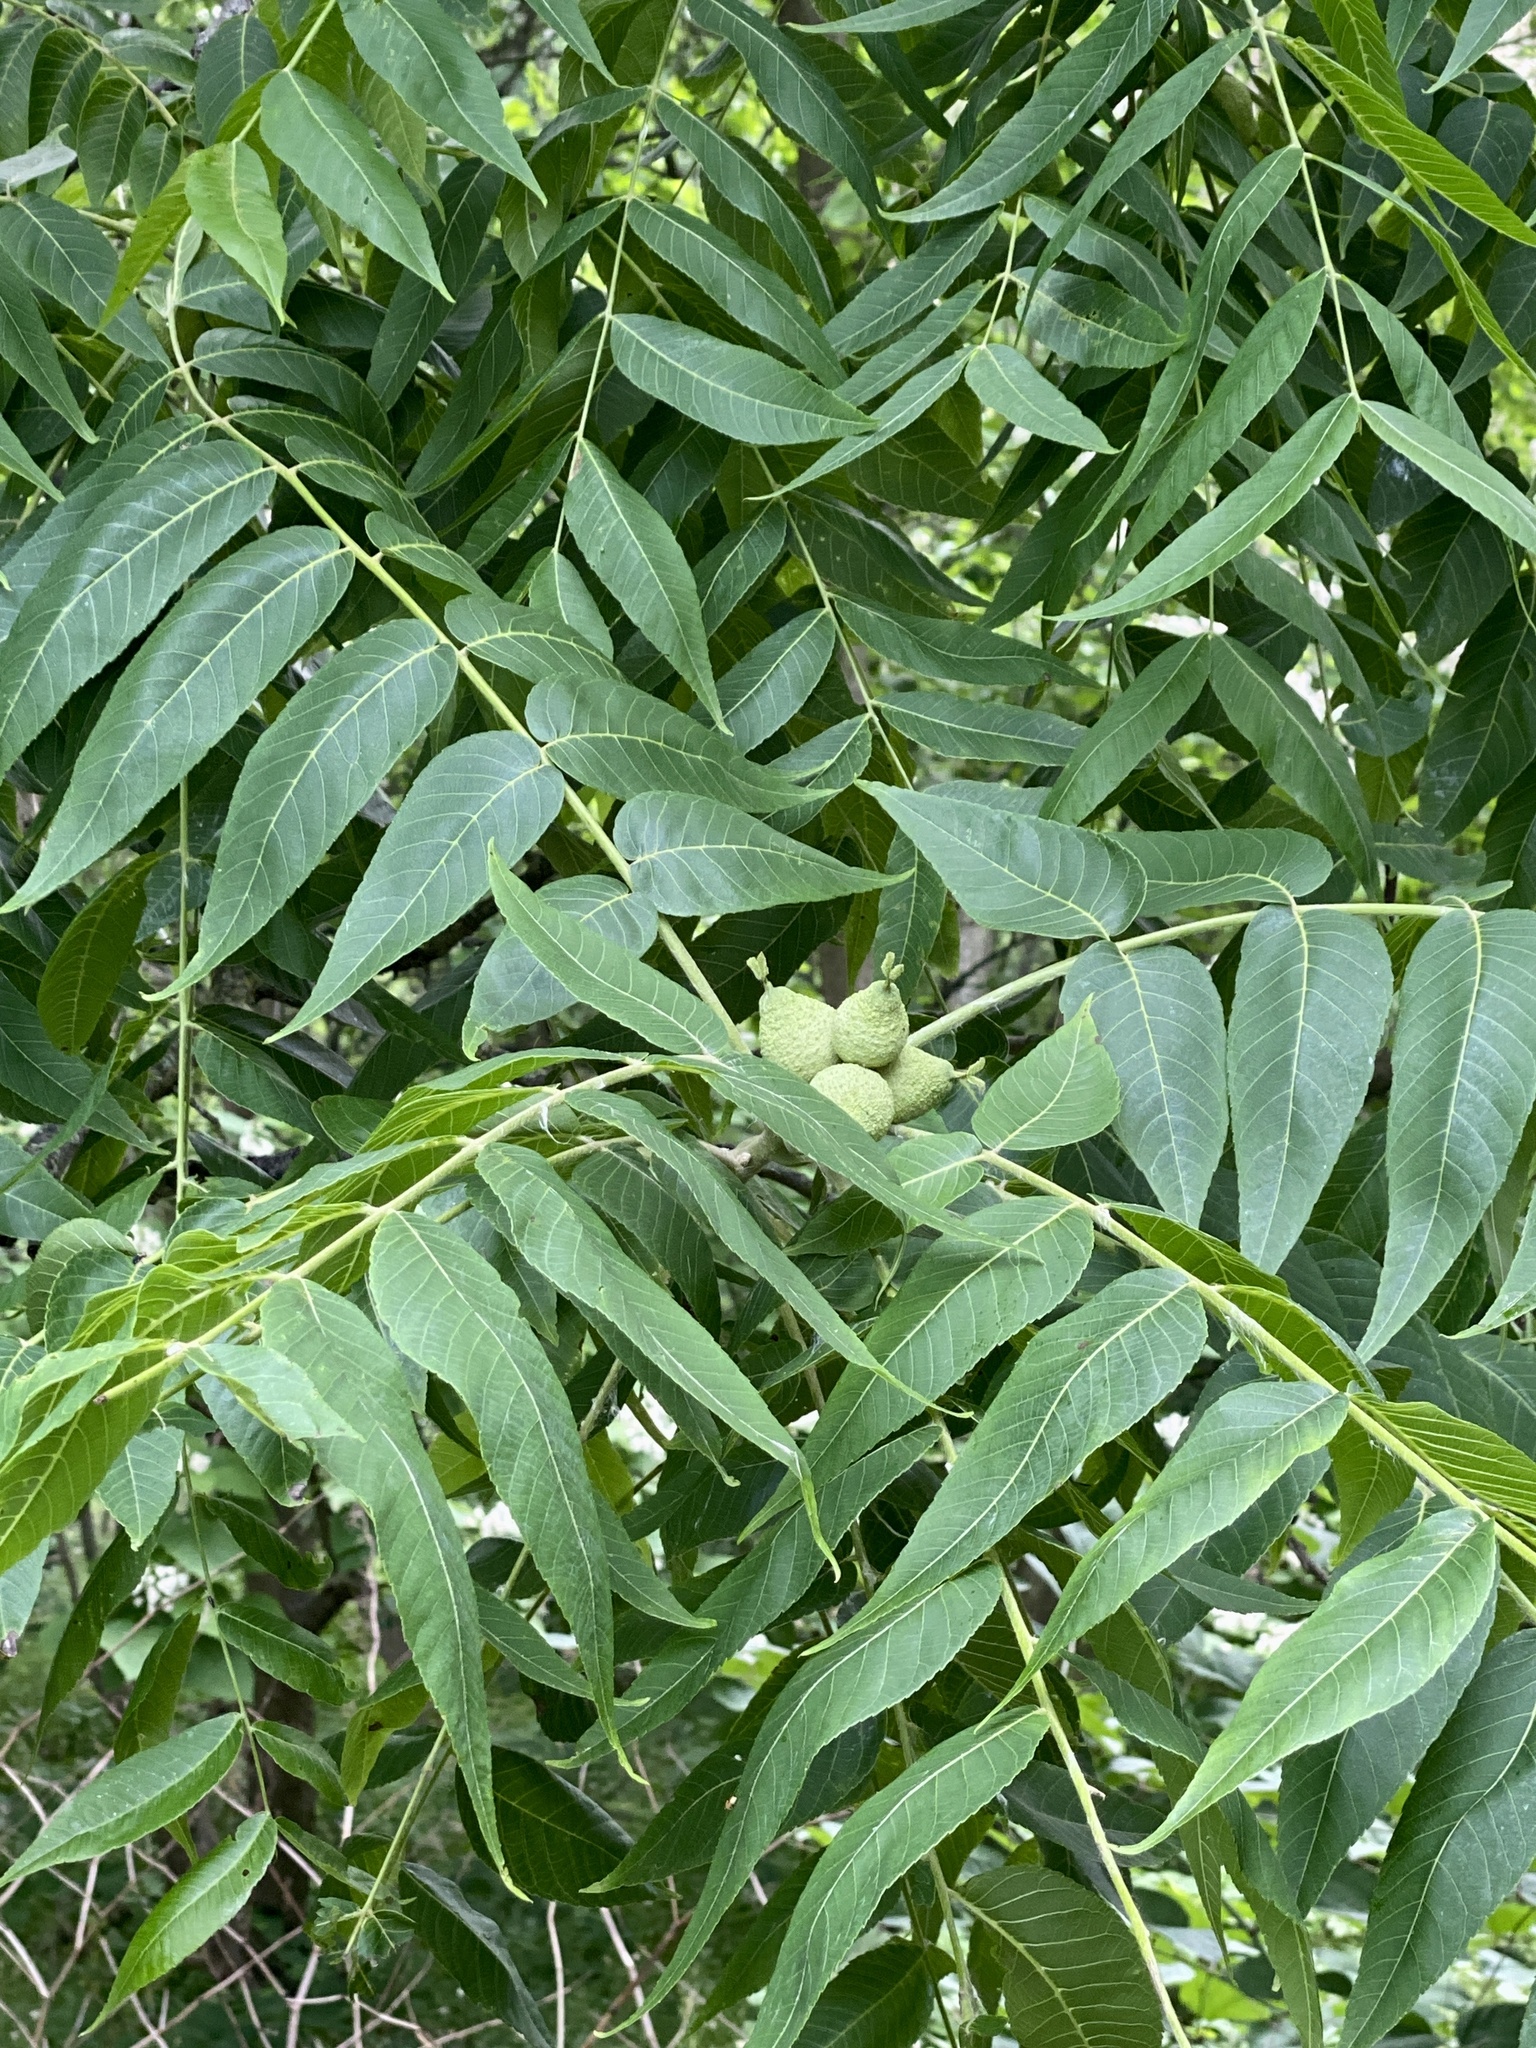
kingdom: Plantae
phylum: Tracheophyta
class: Magnoliopsida
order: Fagales
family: Juglandaceae
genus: Juglans
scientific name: Juglans nigra
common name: Black walnut
